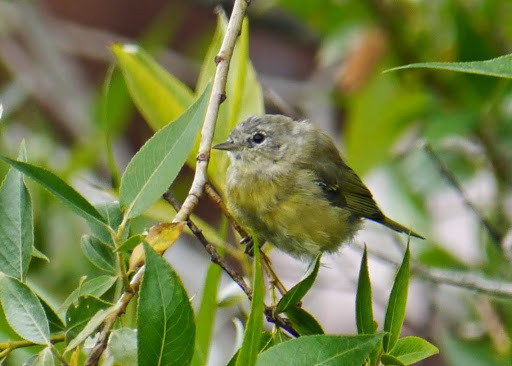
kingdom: Animalia
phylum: Chordata
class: Aves
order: Passeriformes
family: Parulidae
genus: Leiothlypis
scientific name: Leiothlypis celata
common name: Orange-crowned warbler
